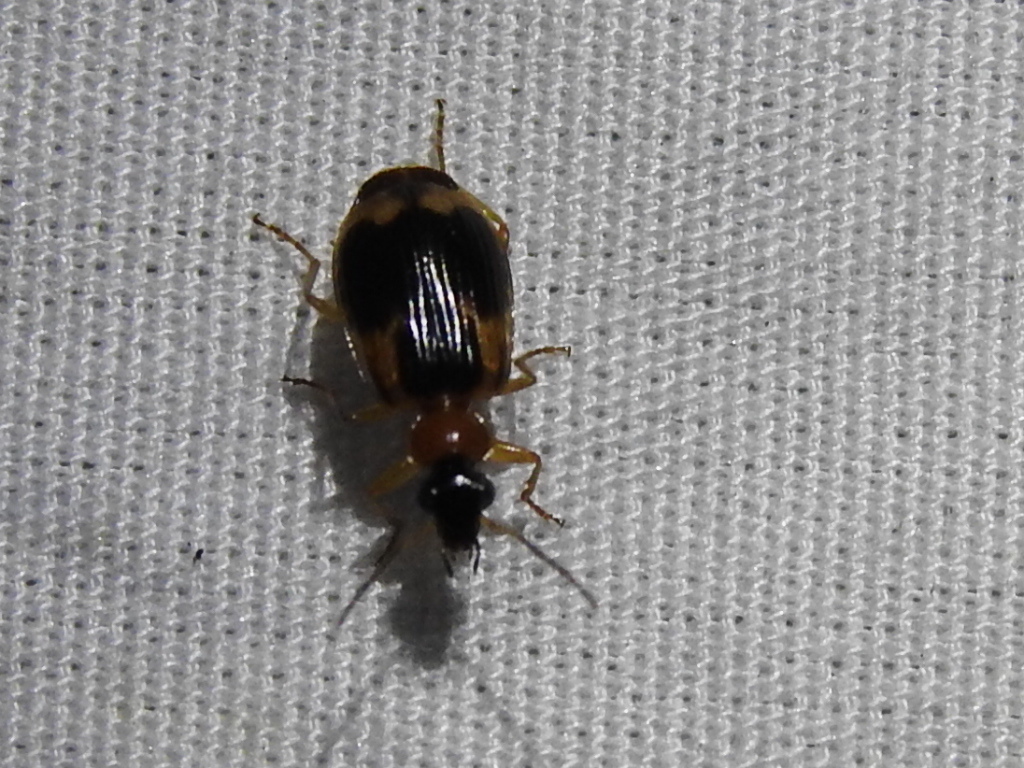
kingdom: Animalia
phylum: Arthropoda
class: Insecta
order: Coleoptera
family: Carabidae
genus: Lebia
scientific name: Lebia analis
